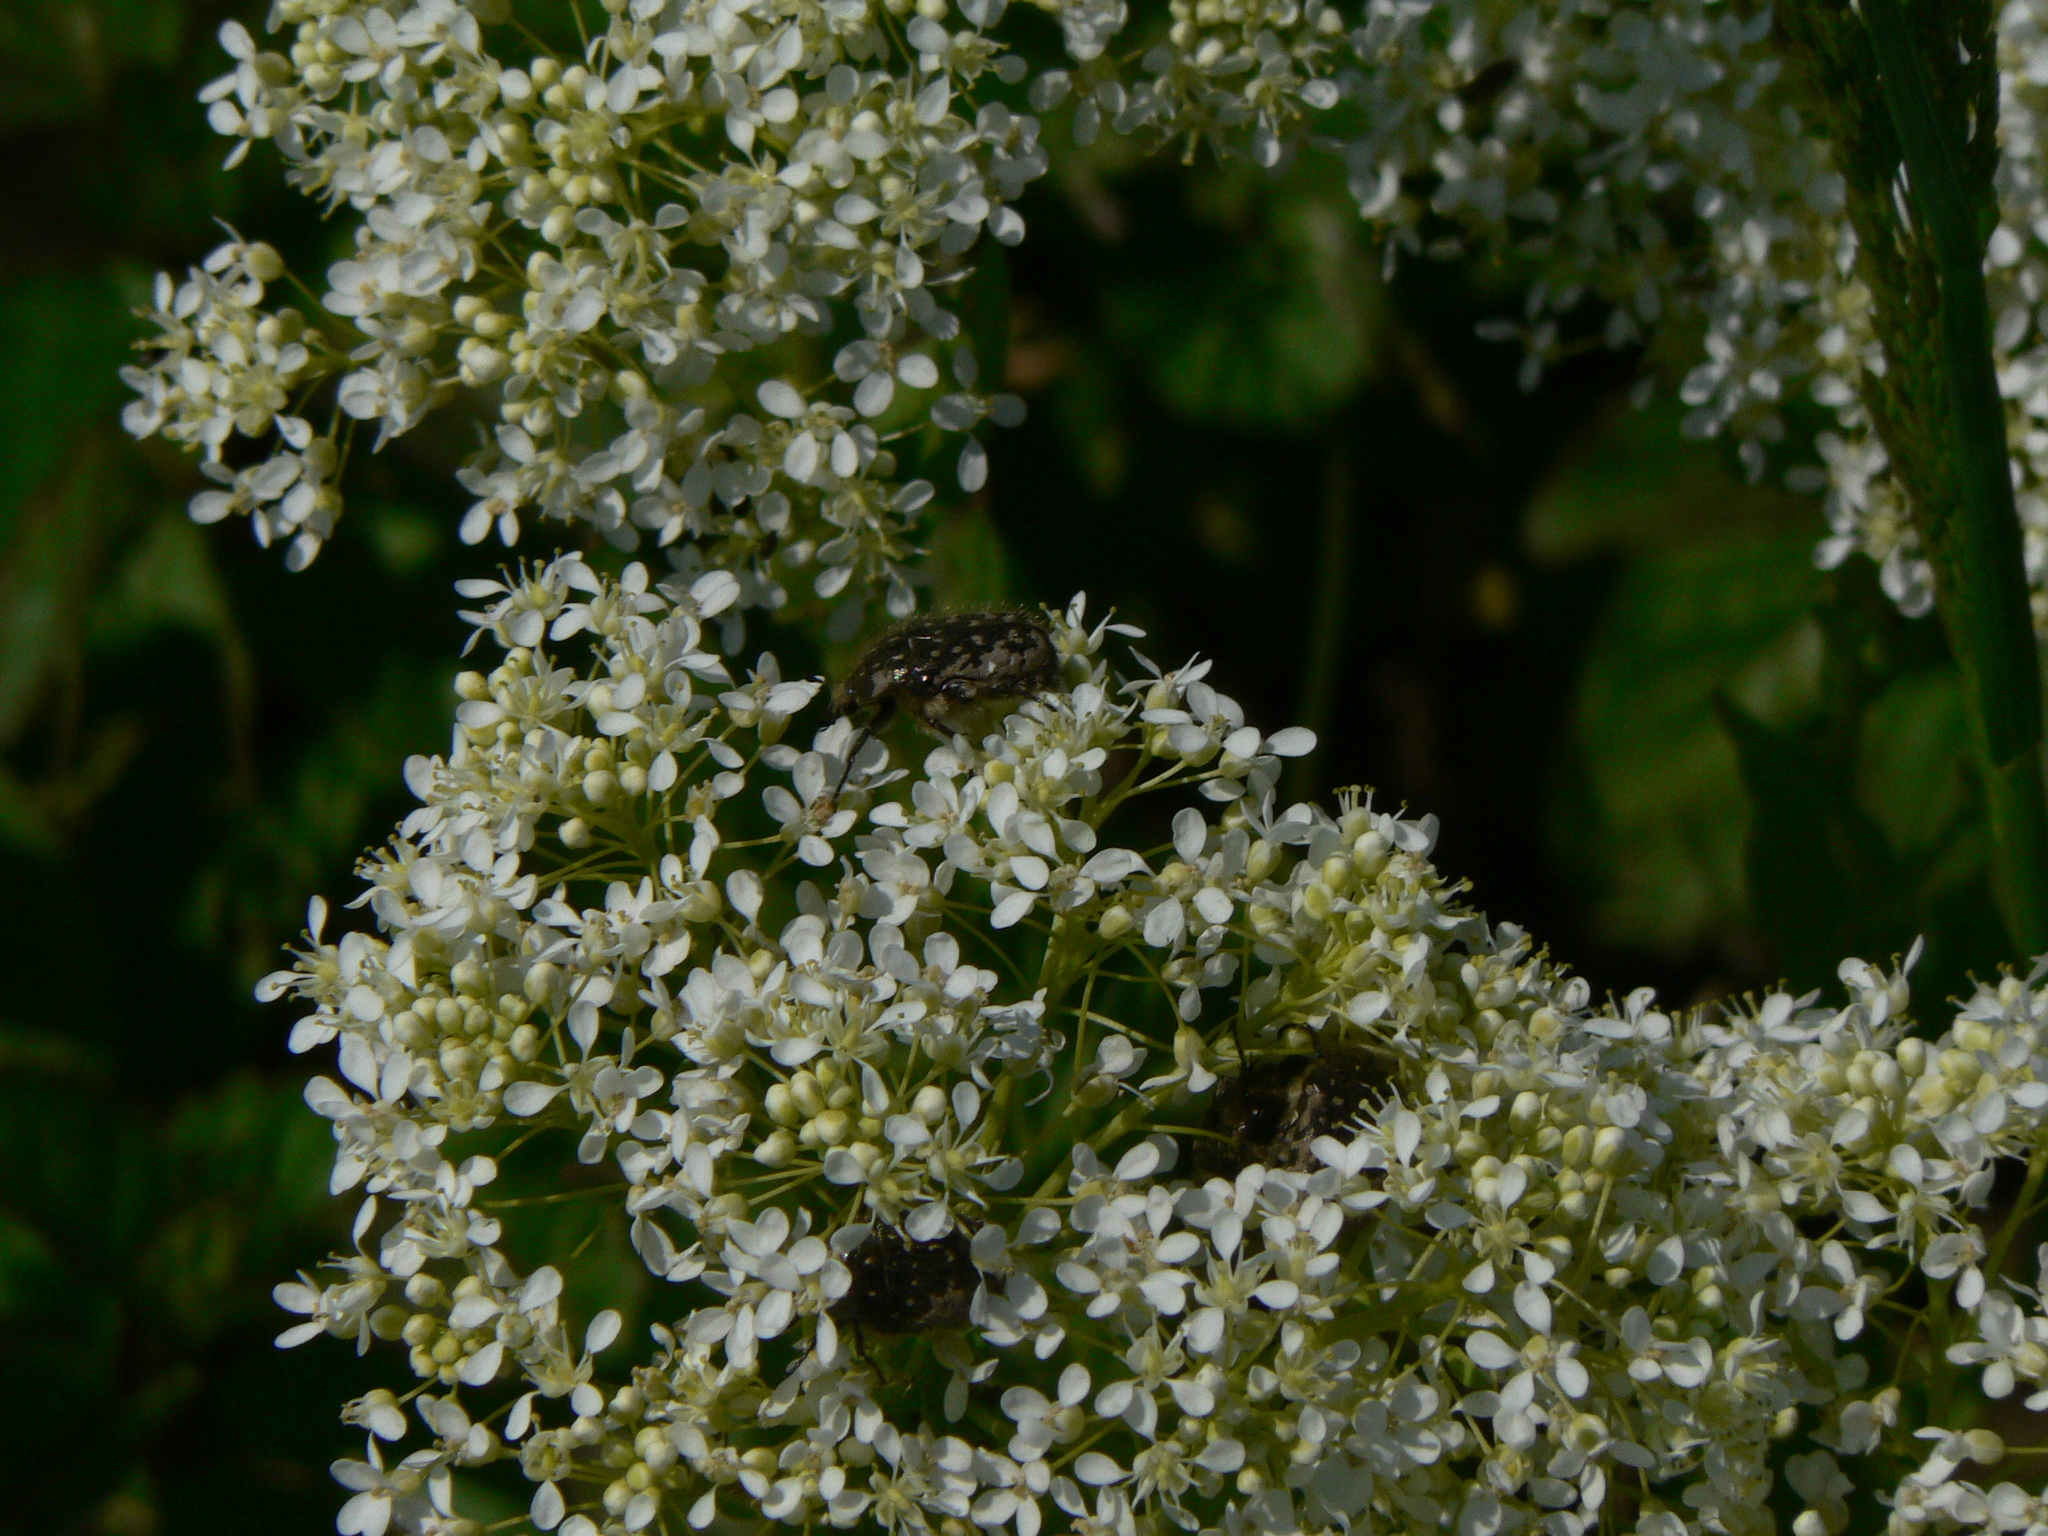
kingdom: Animalia
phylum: Arthropoda
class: Insecta
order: Coleoptera
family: Scarabaeidae
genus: Oxythyrea
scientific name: Oxythyrea funesta
